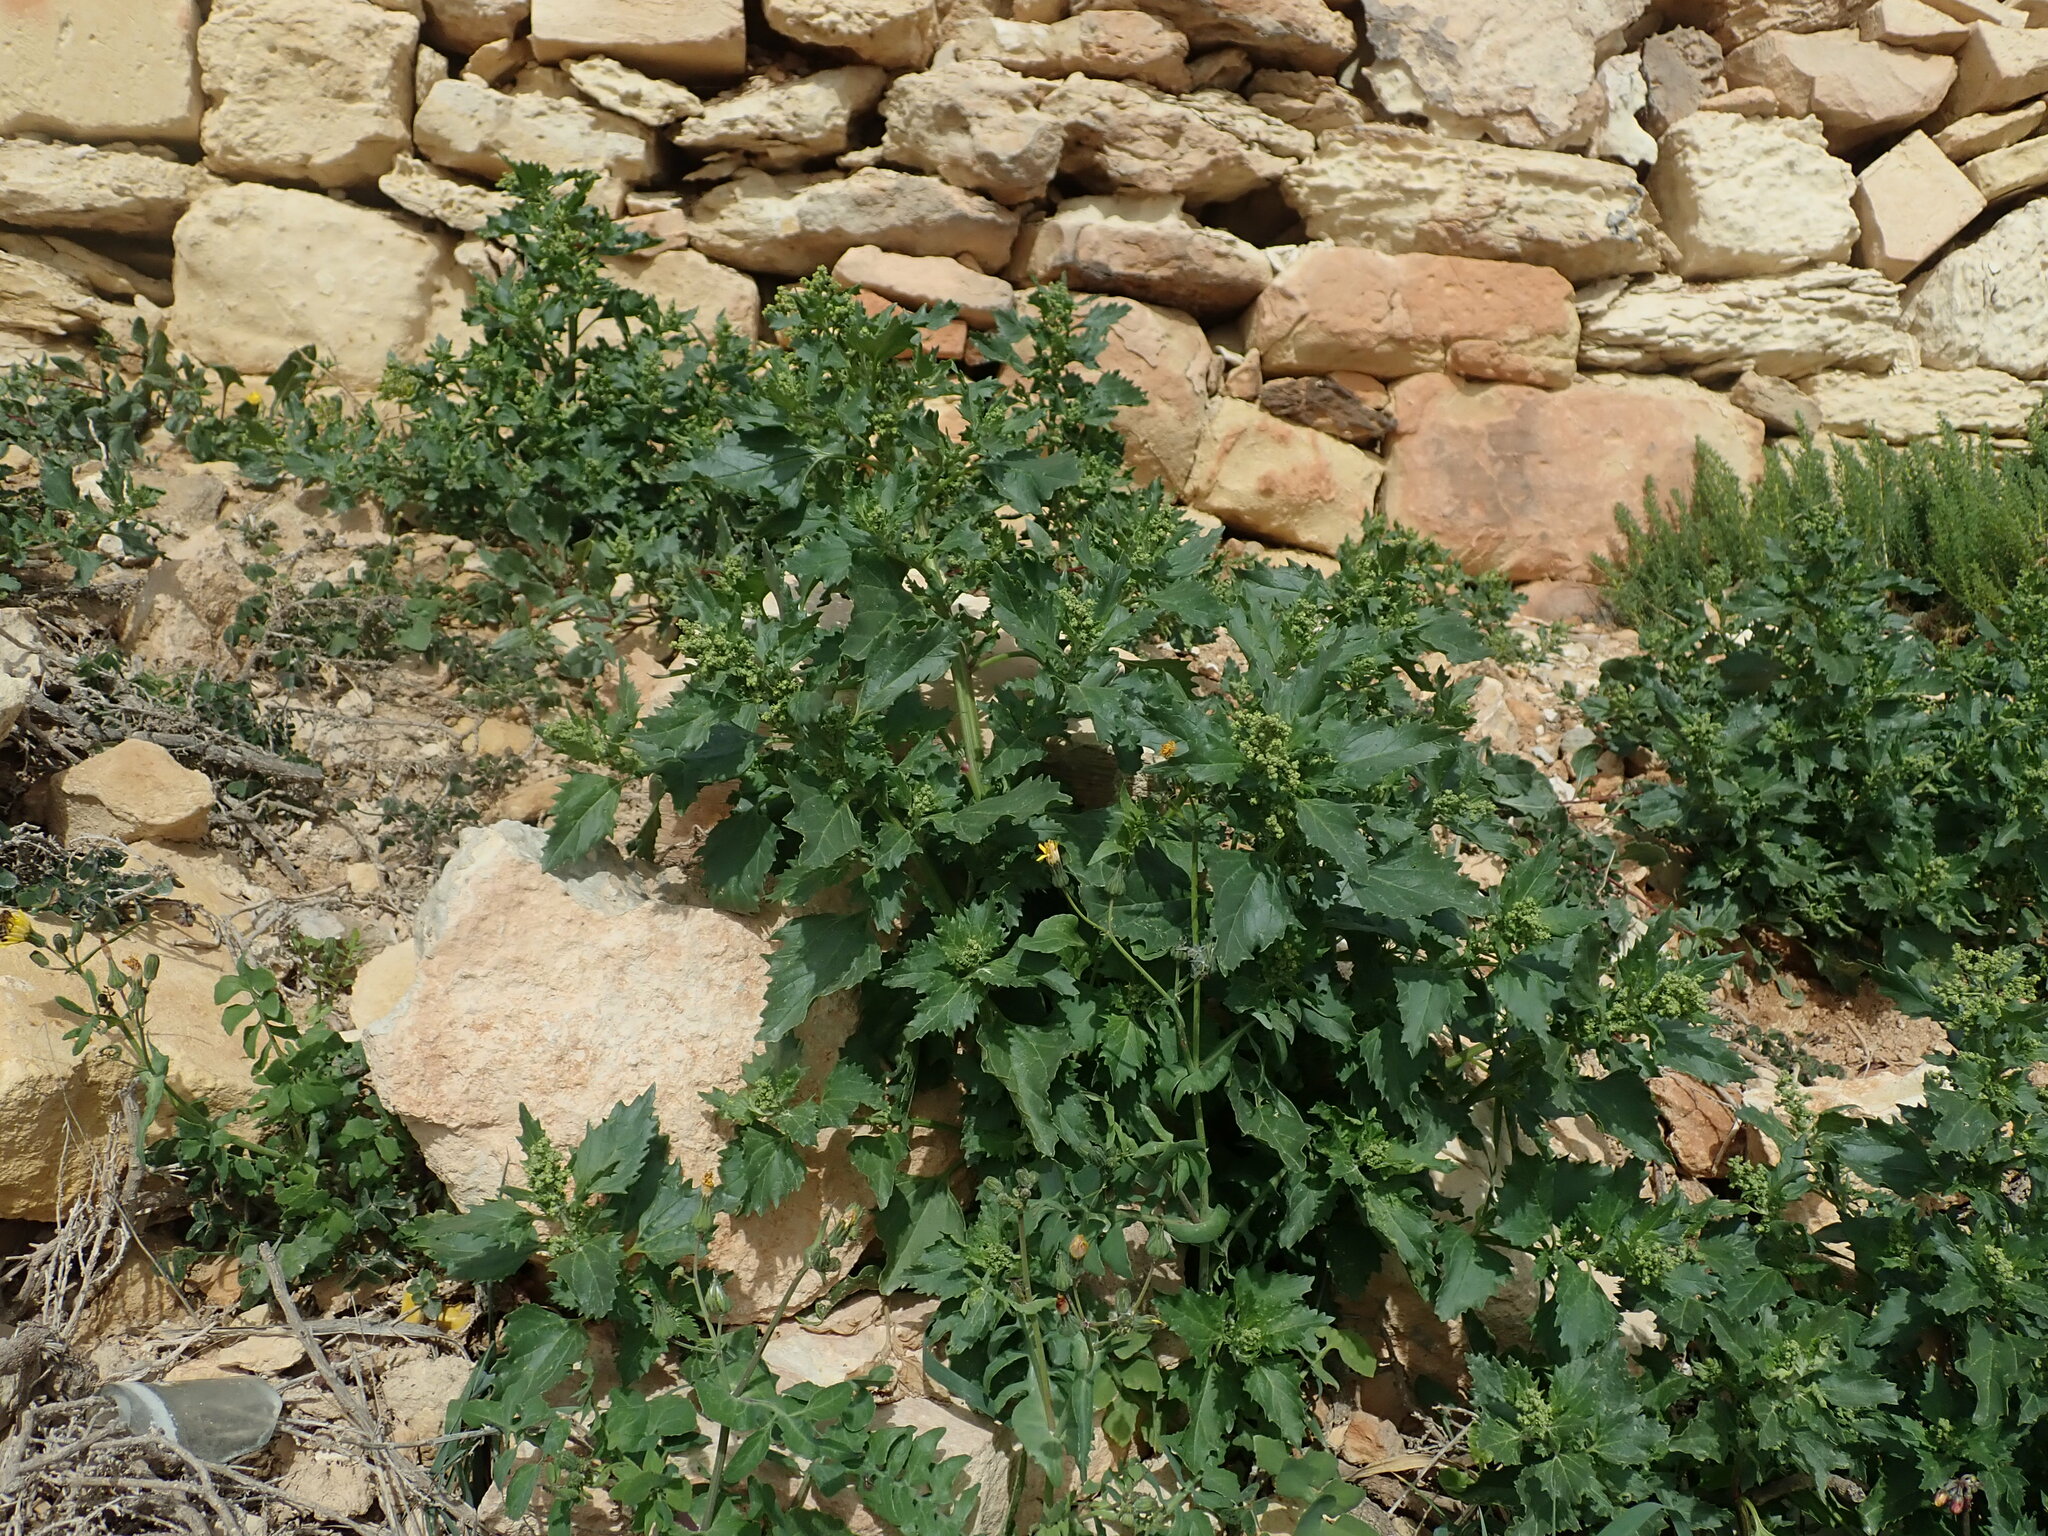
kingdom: Plantae
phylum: Tracheophyta
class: Magnoliopsida
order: Caryophyllales
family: Amaranthaceae
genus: Chenopodiastrum
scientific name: Chenopodiastrum murale
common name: Sowbane
